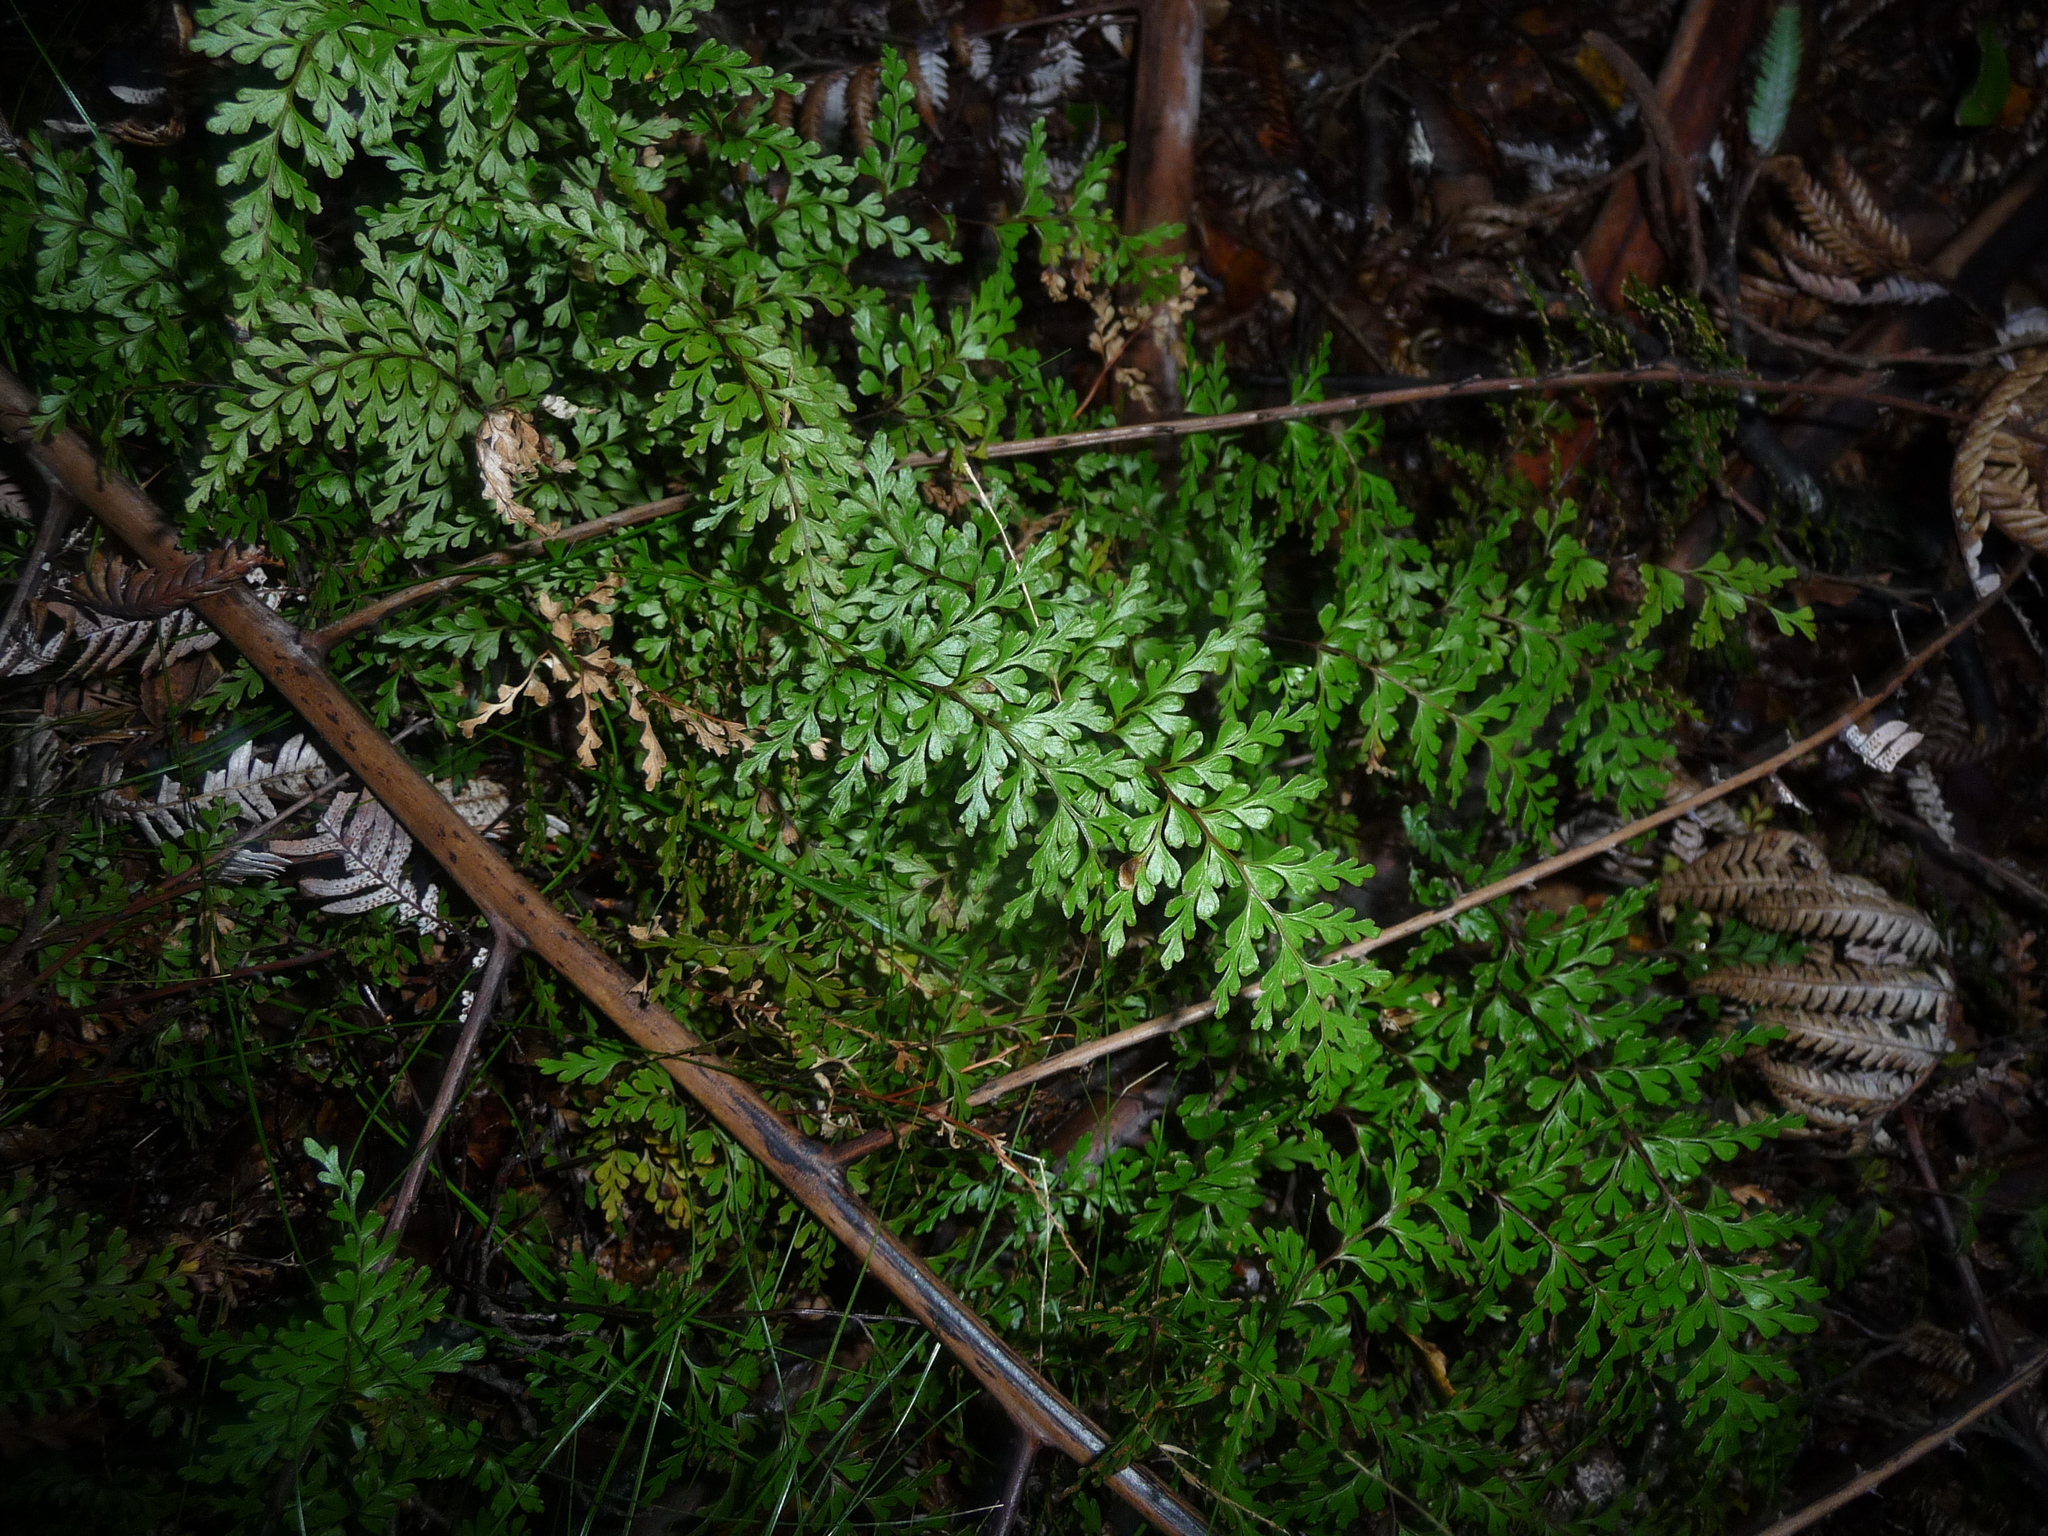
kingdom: Plantae
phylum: Tracheophyta
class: Polypodiopsida
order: Polypodiales
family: Lindsaeaceae
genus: Lindsaea
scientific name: Lindsaea trichomanoides
